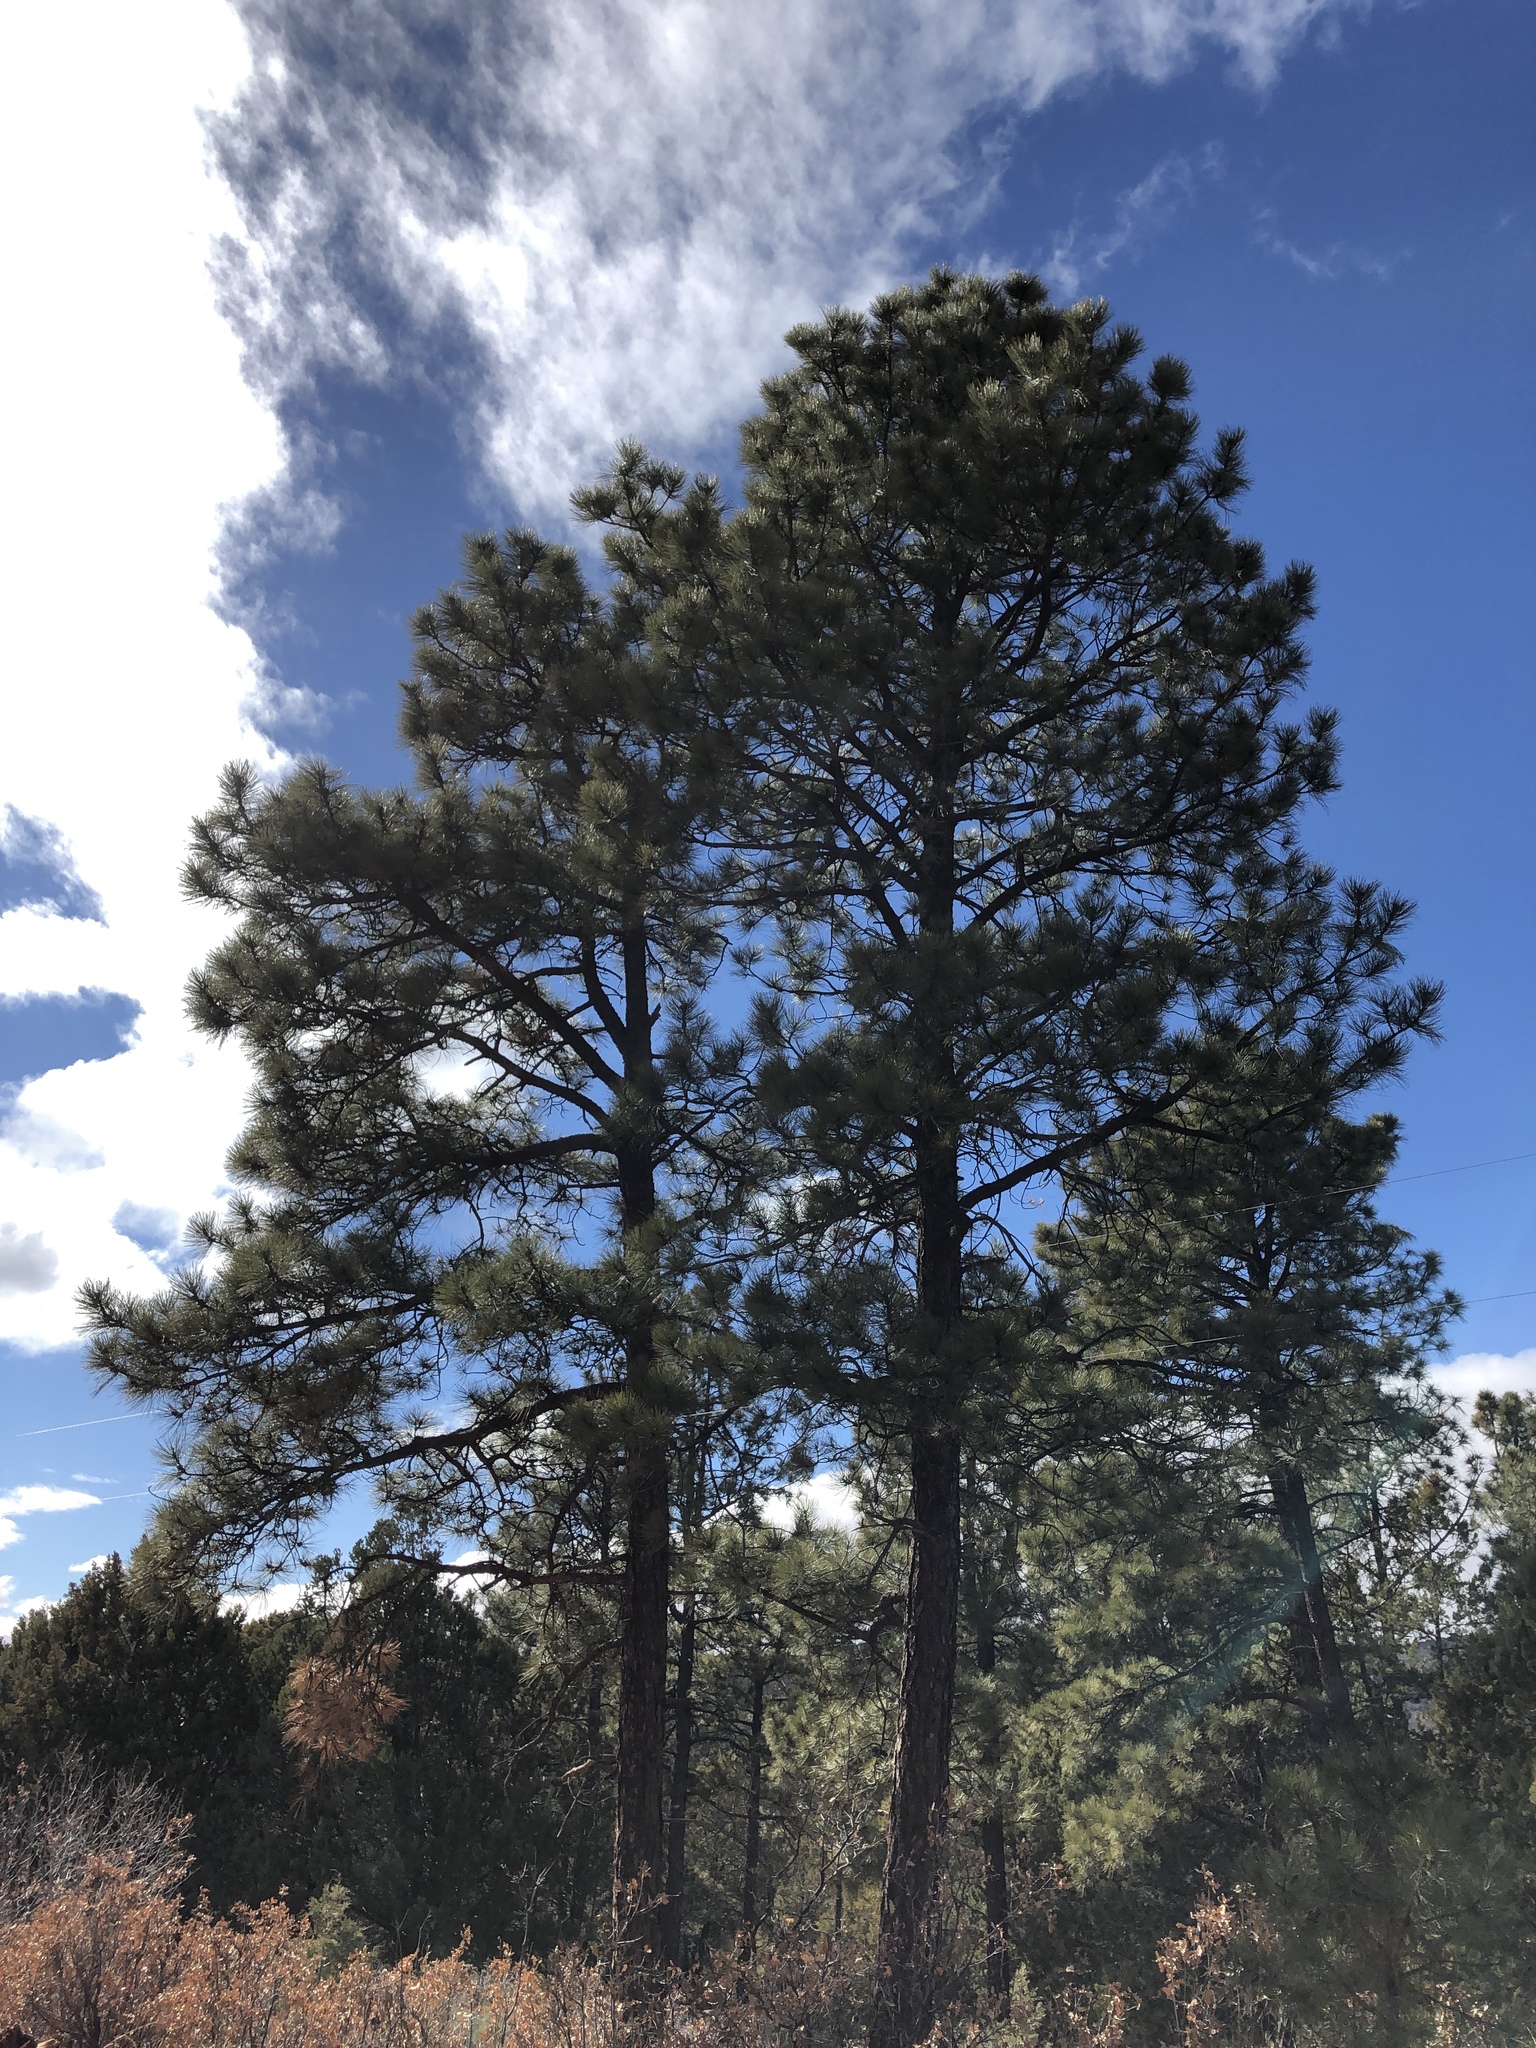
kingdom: Plantae
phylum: Tracheophyta
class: Pinopsida
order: Pinales
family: Pinaceae
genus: Pinus
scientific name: Pinus ponderosa
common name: Western yellow-pine
